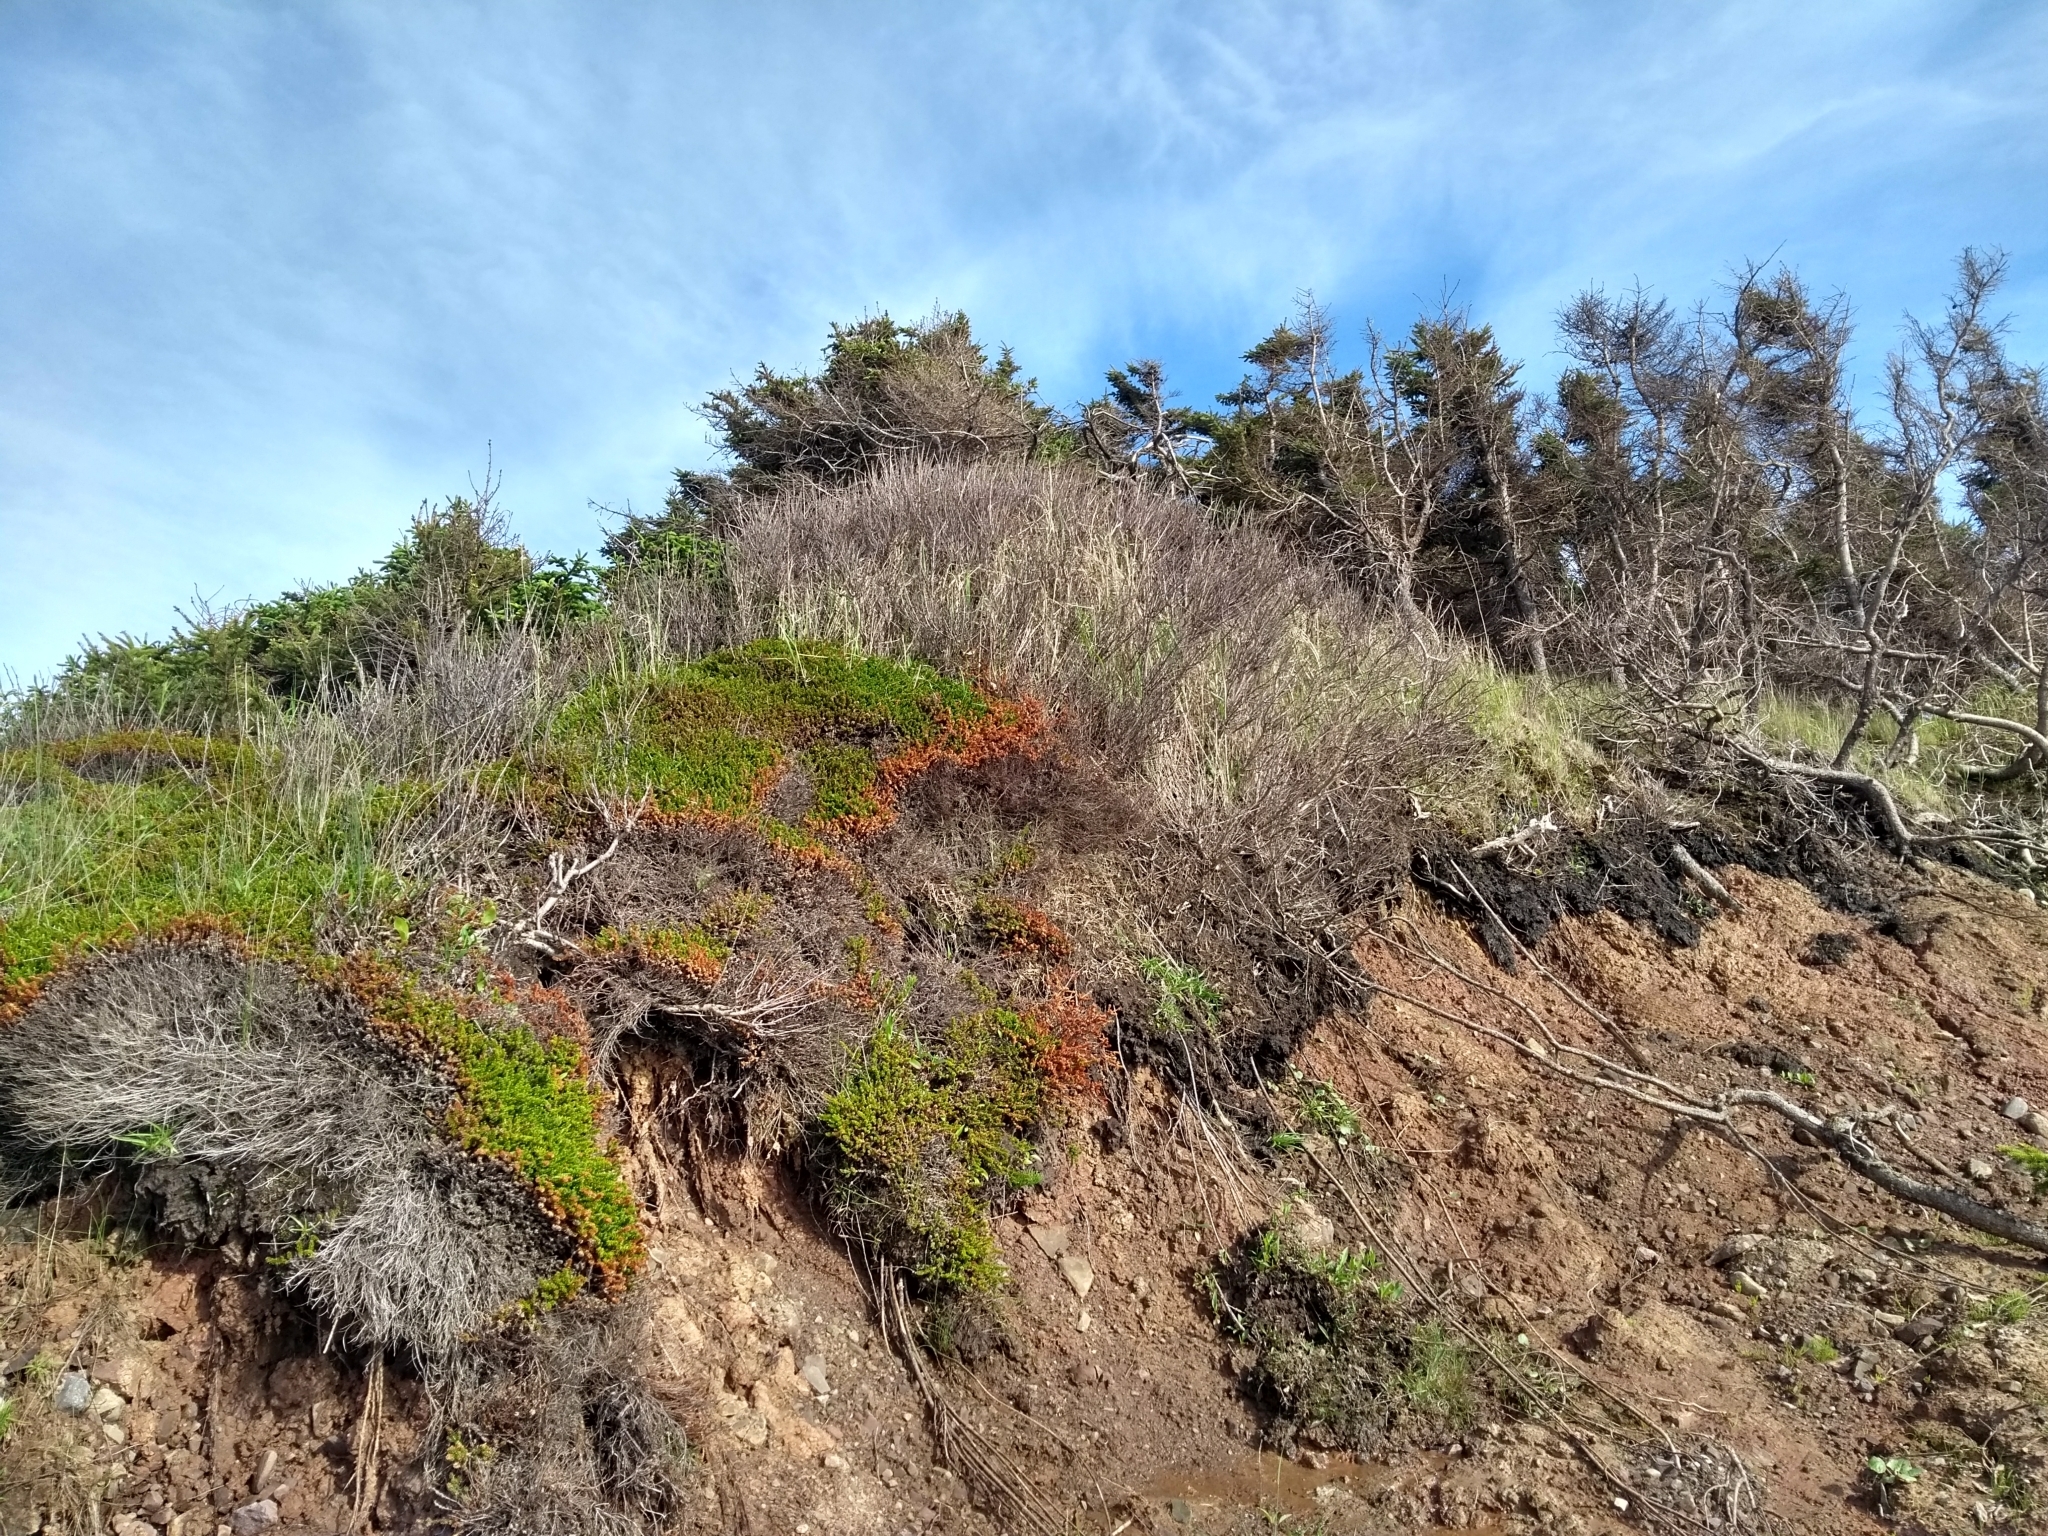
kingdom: Plantae
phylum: Tracheophyta
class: Magnoliopsida
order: Ericales
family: Ericaceae
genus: Empetrum
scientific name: Empetrum nigrum
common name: Black crowberry
